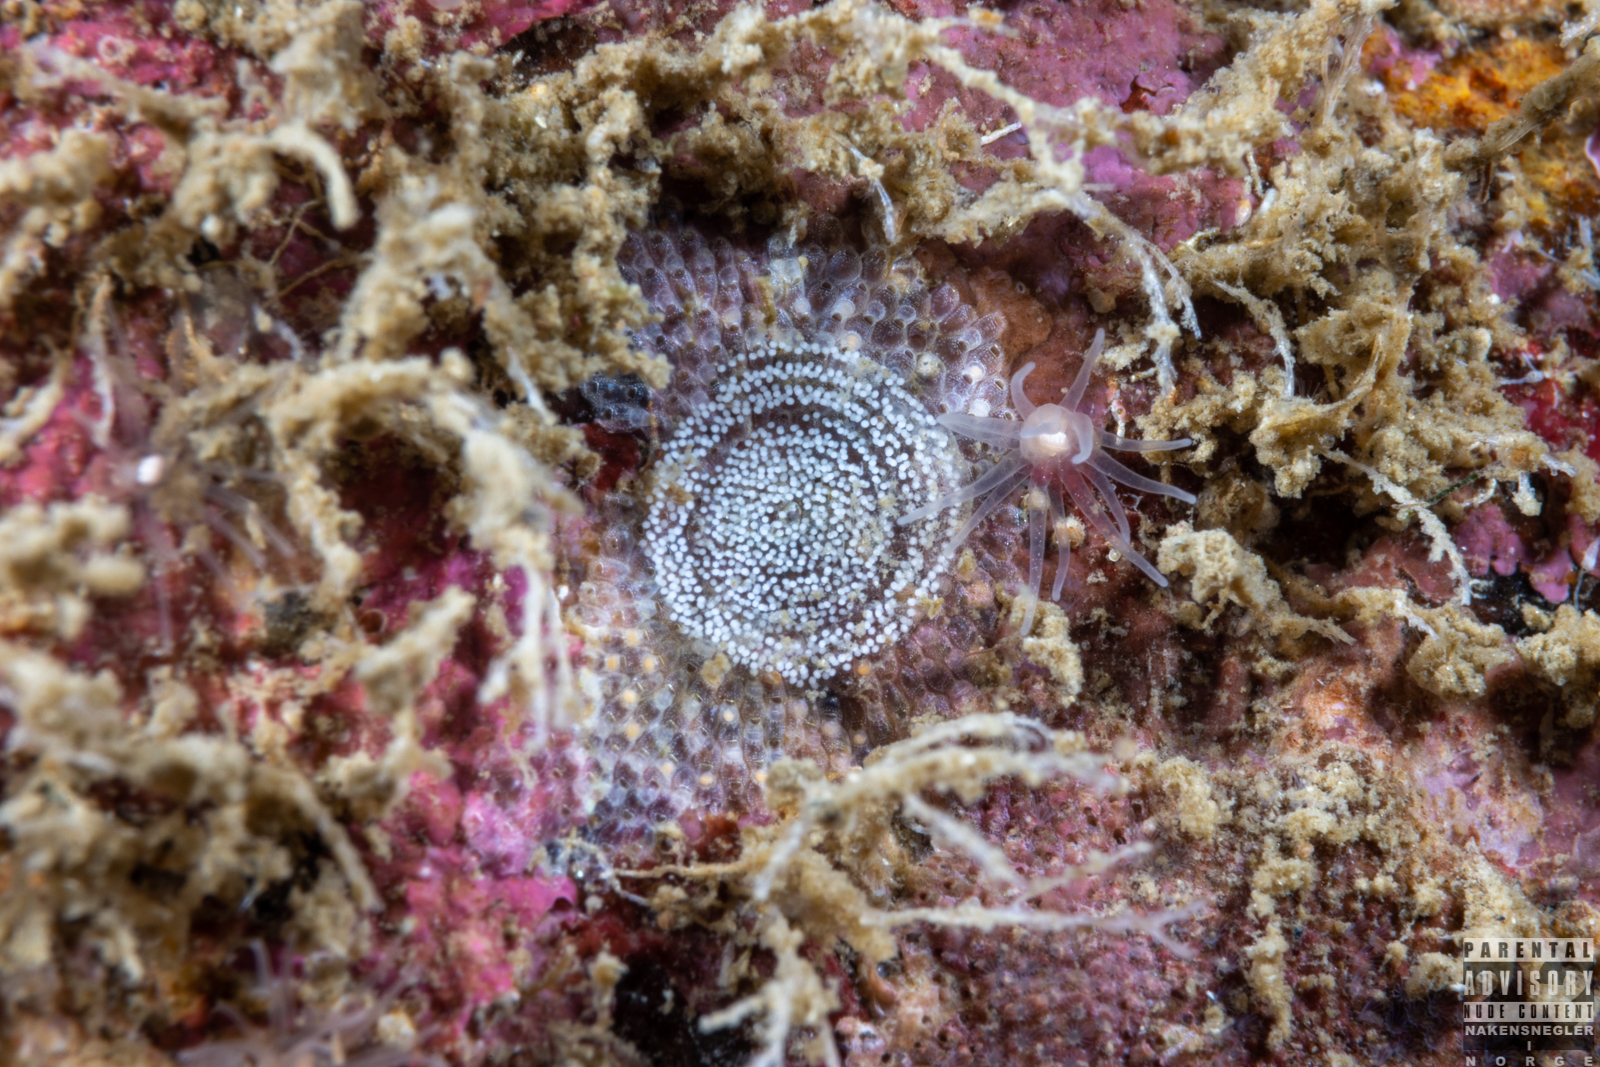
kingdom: Animalia
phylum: Mollusca
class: Gastropoda
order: Nudibranchia
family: Onchidorididae
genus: Atalodoris
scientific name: Atalodoris pusilla
